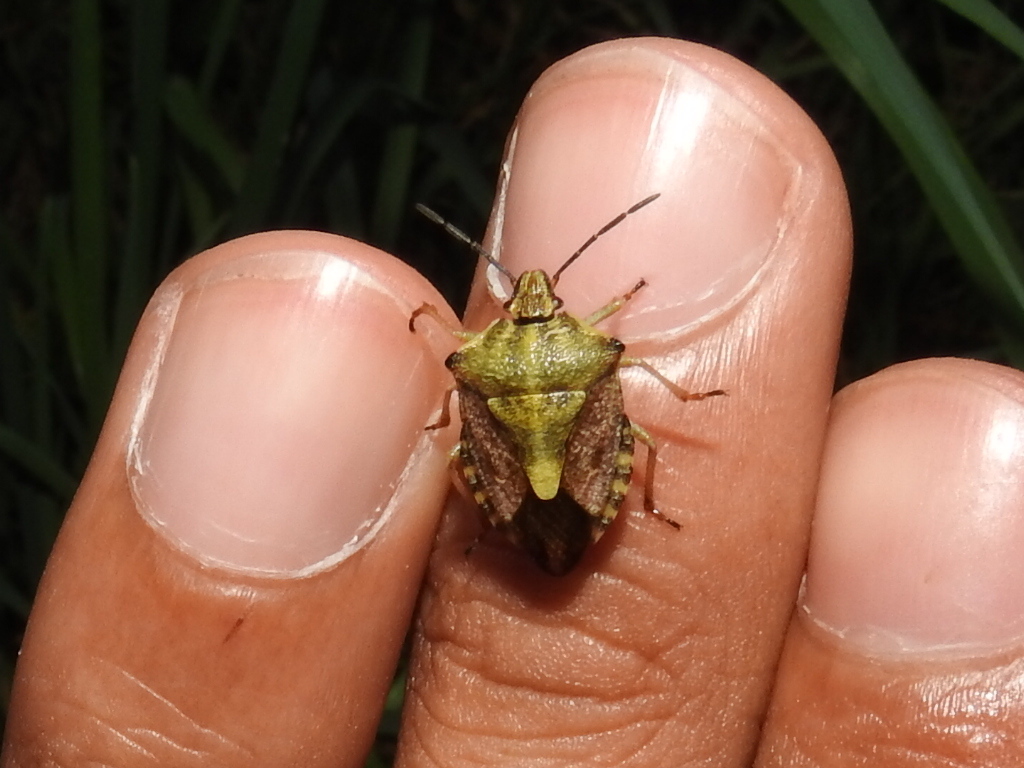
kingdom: Animalia
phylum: Arthropoda
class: Insecta
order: Hemiptera
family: Pentatomidae
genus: Carpocoris
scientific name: Carpocoris purpureipennis
